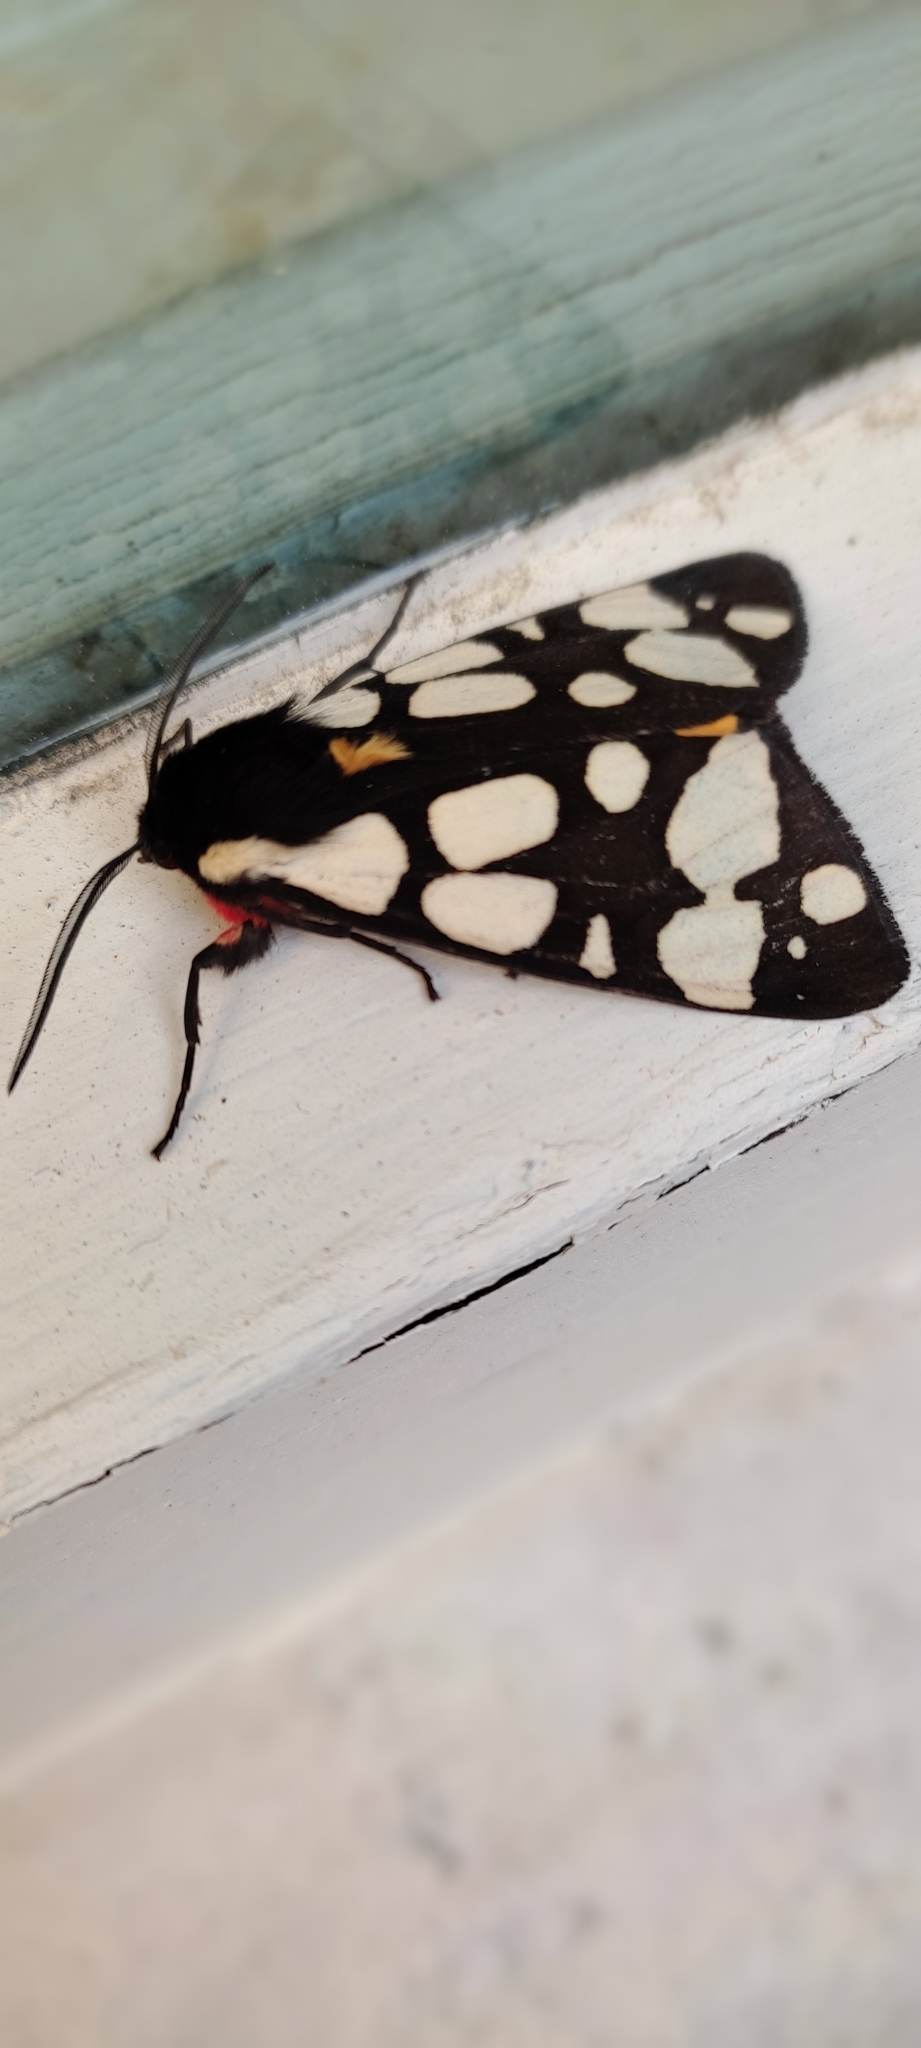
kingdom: Animalia
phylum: Arthropoda
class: Insecta
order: Lepidoptera
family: Erebidae
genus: Epicallia
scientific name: Epicallia villica
